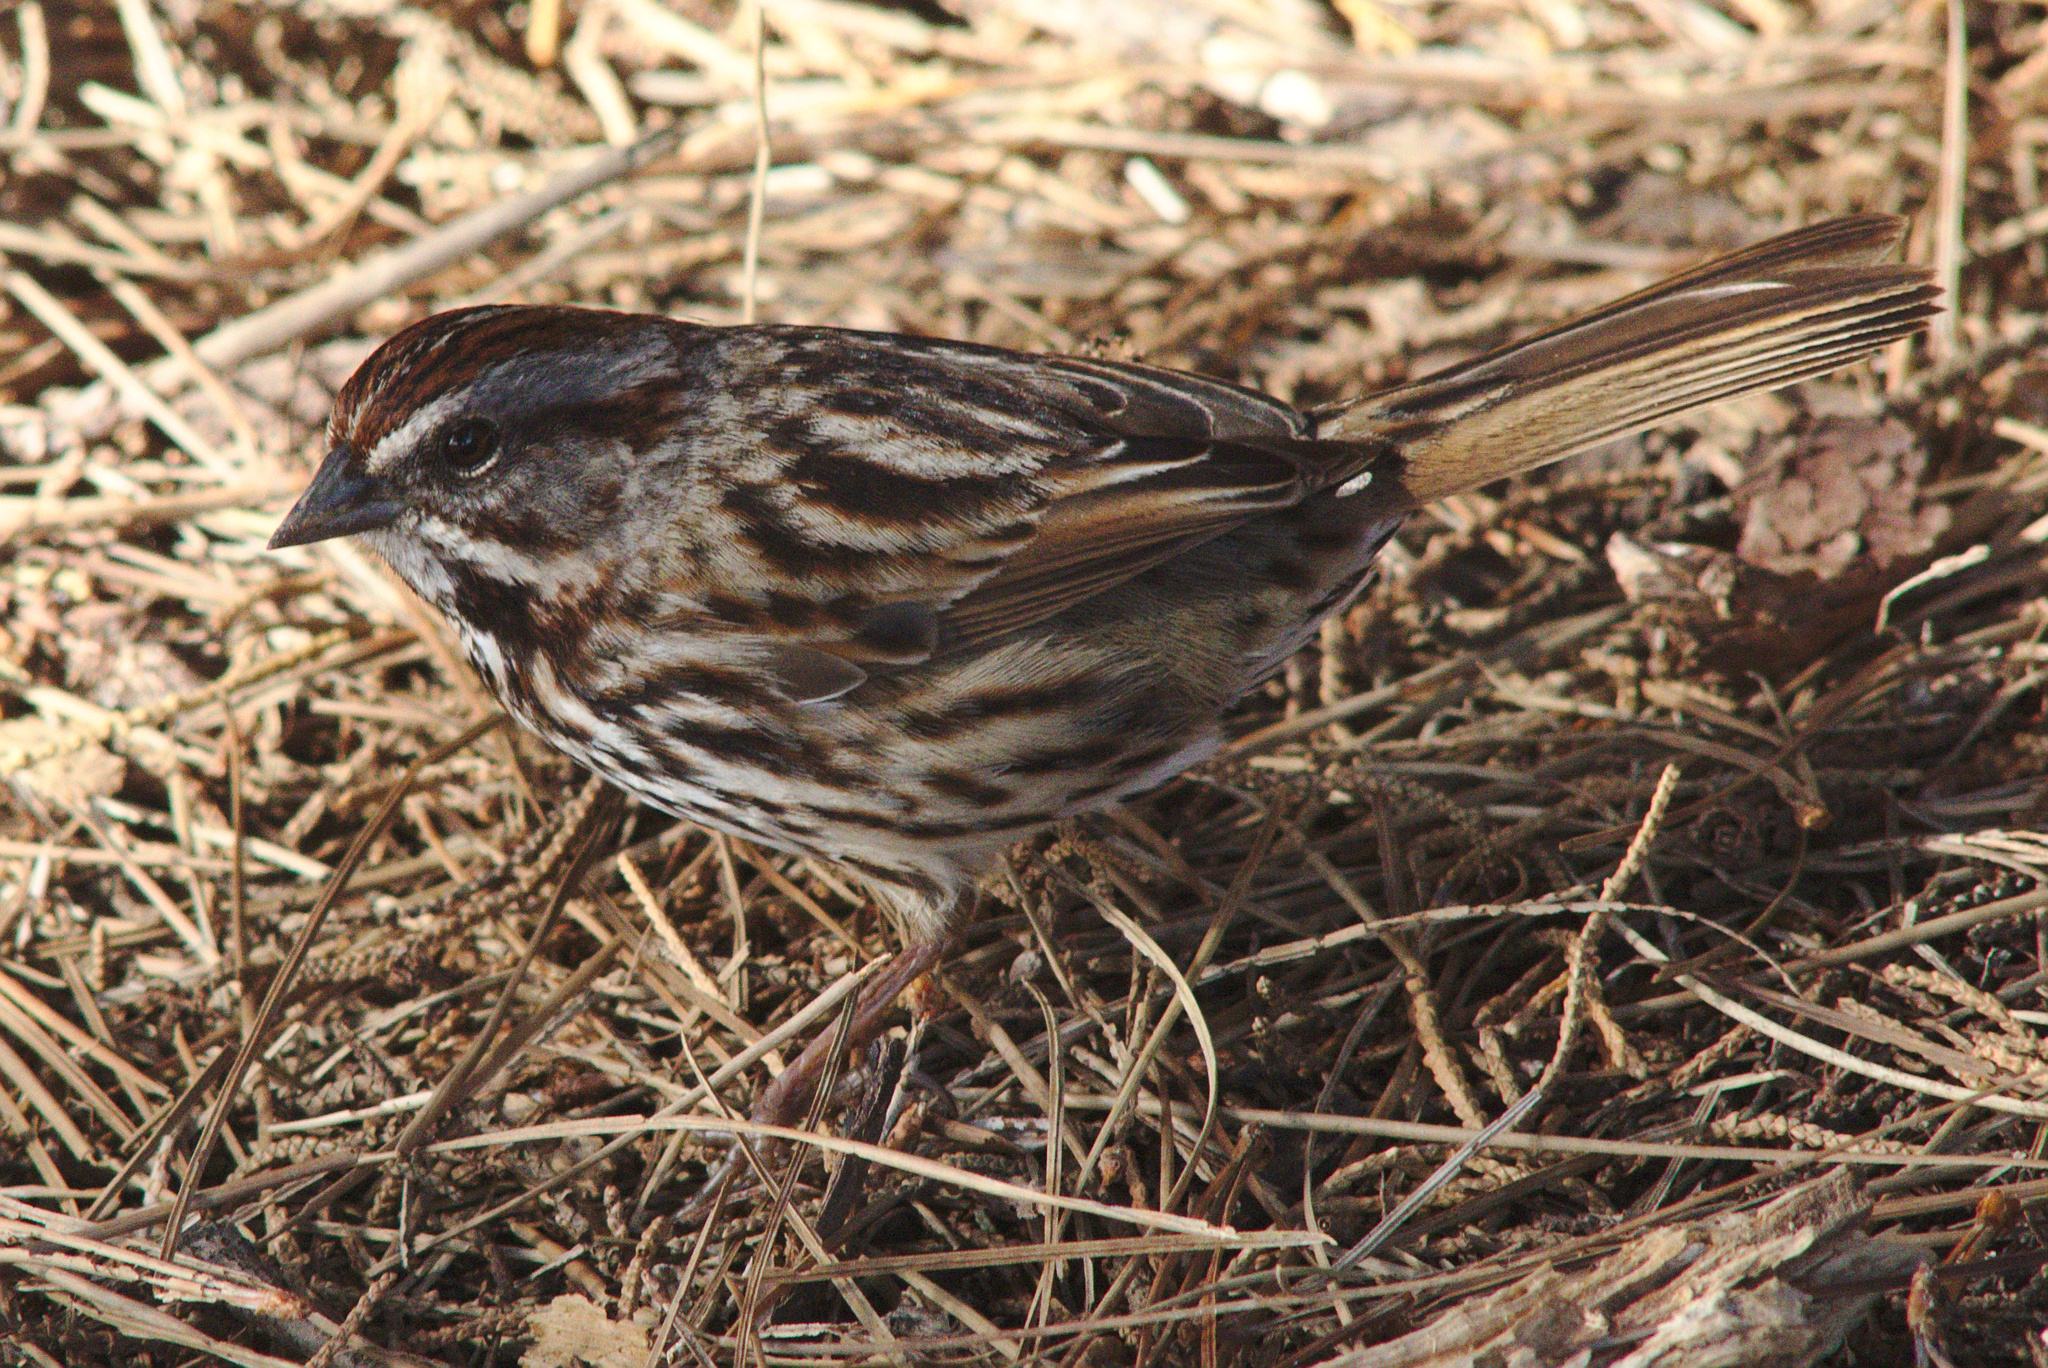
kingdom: Animalia
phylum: Chordata
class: Aves
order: Passeriformes
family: Passerellidae
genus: Melospiza
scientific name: Melospiza melodia
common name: Song sparrow
